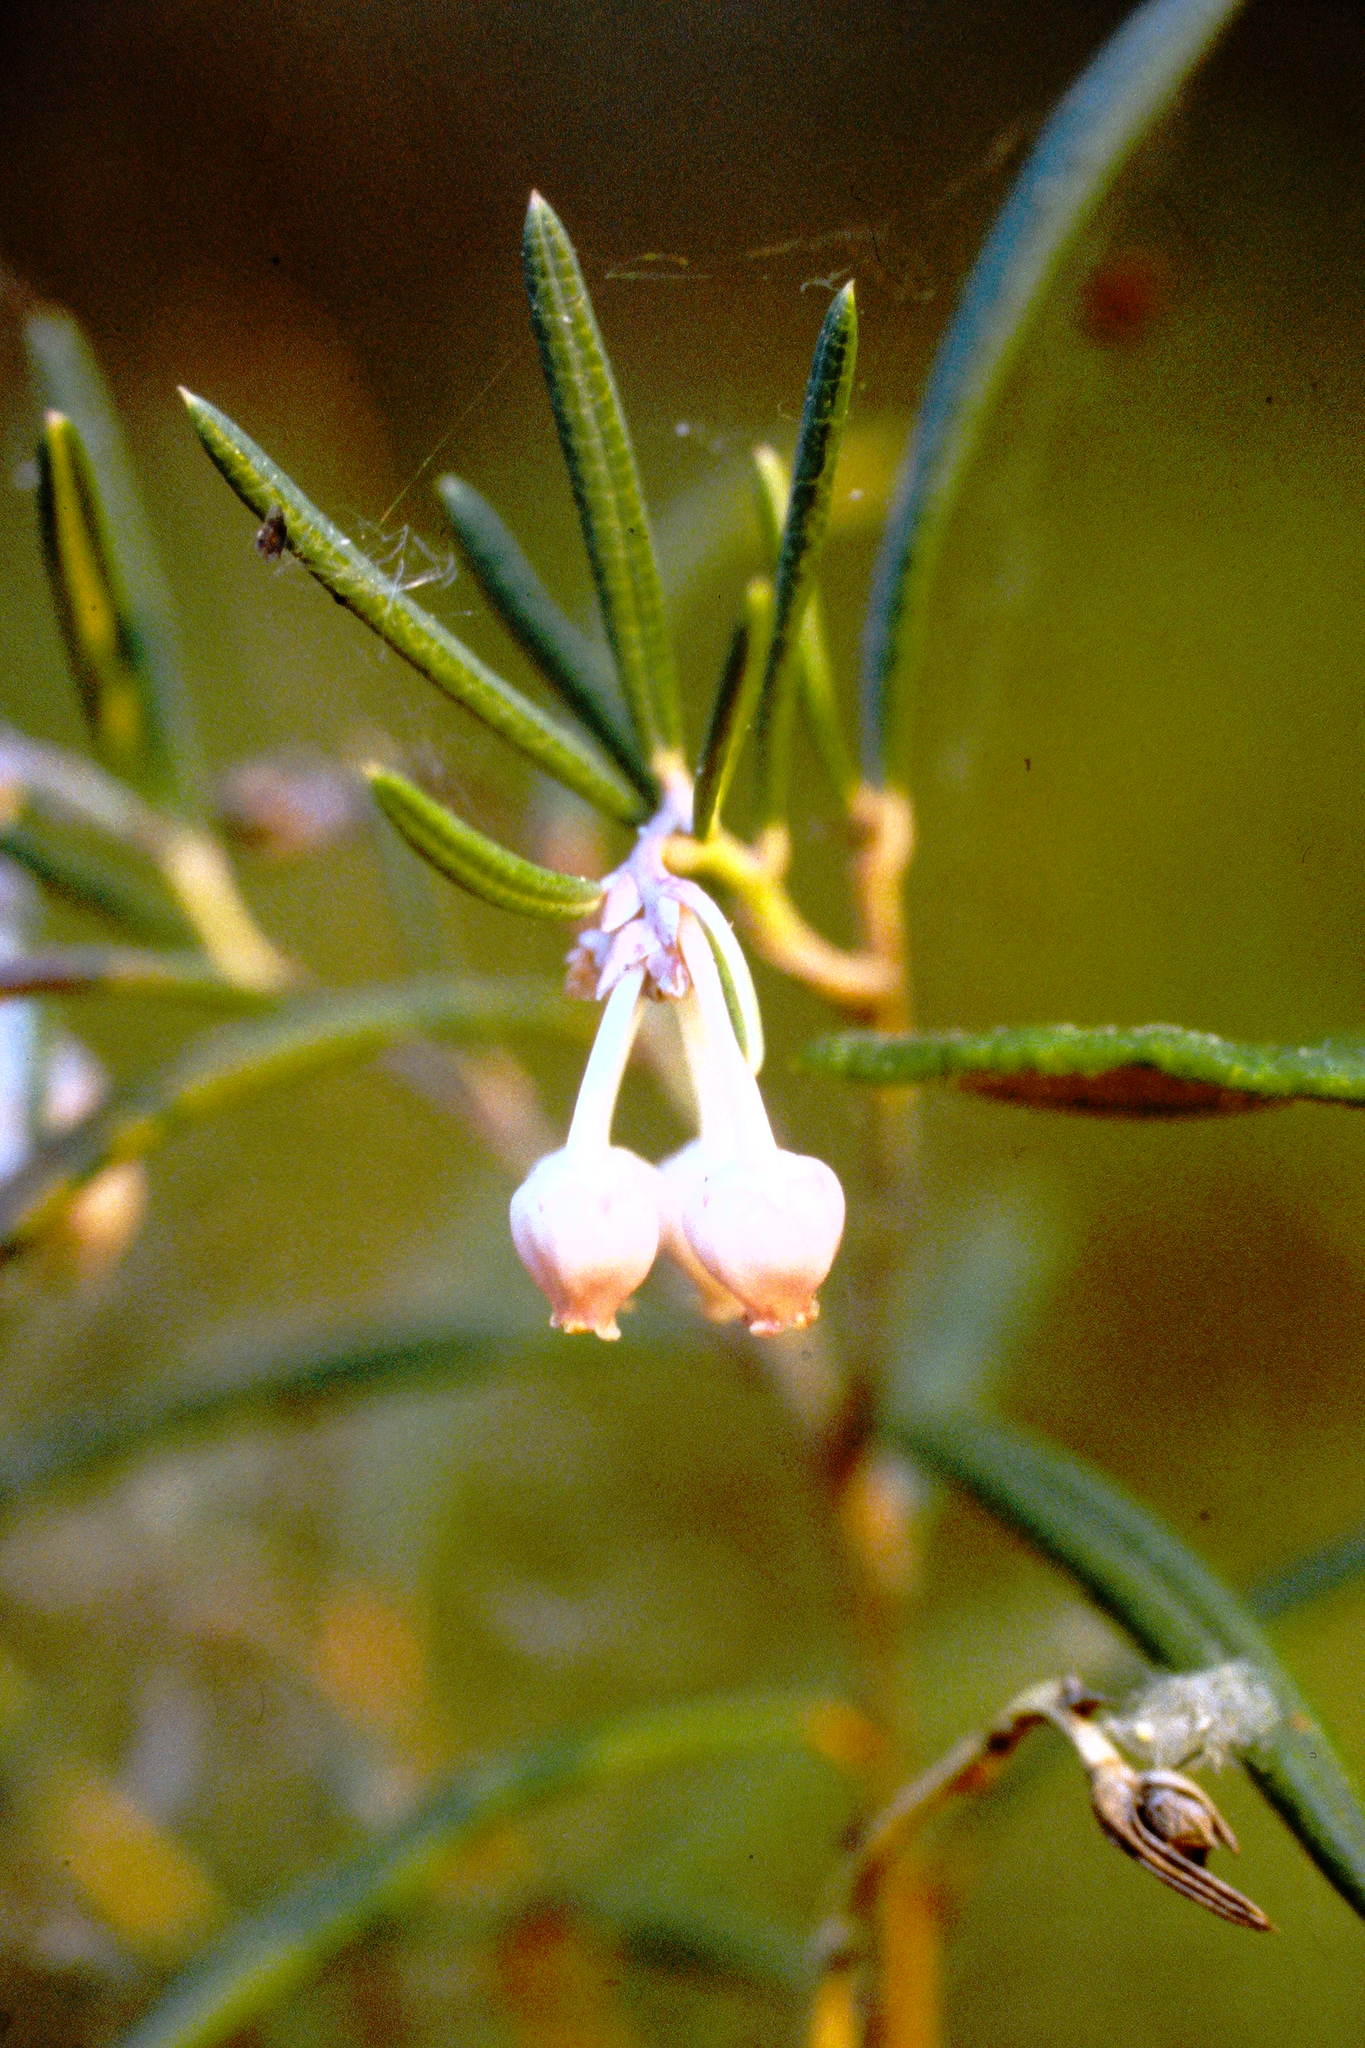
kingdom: Plantae
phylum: Tracheophyta
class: Magnoliopsida
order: Ericales
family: Ericaceae
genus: Andromeda
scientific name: Andromeda polifolia
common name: Bog-rosemary
